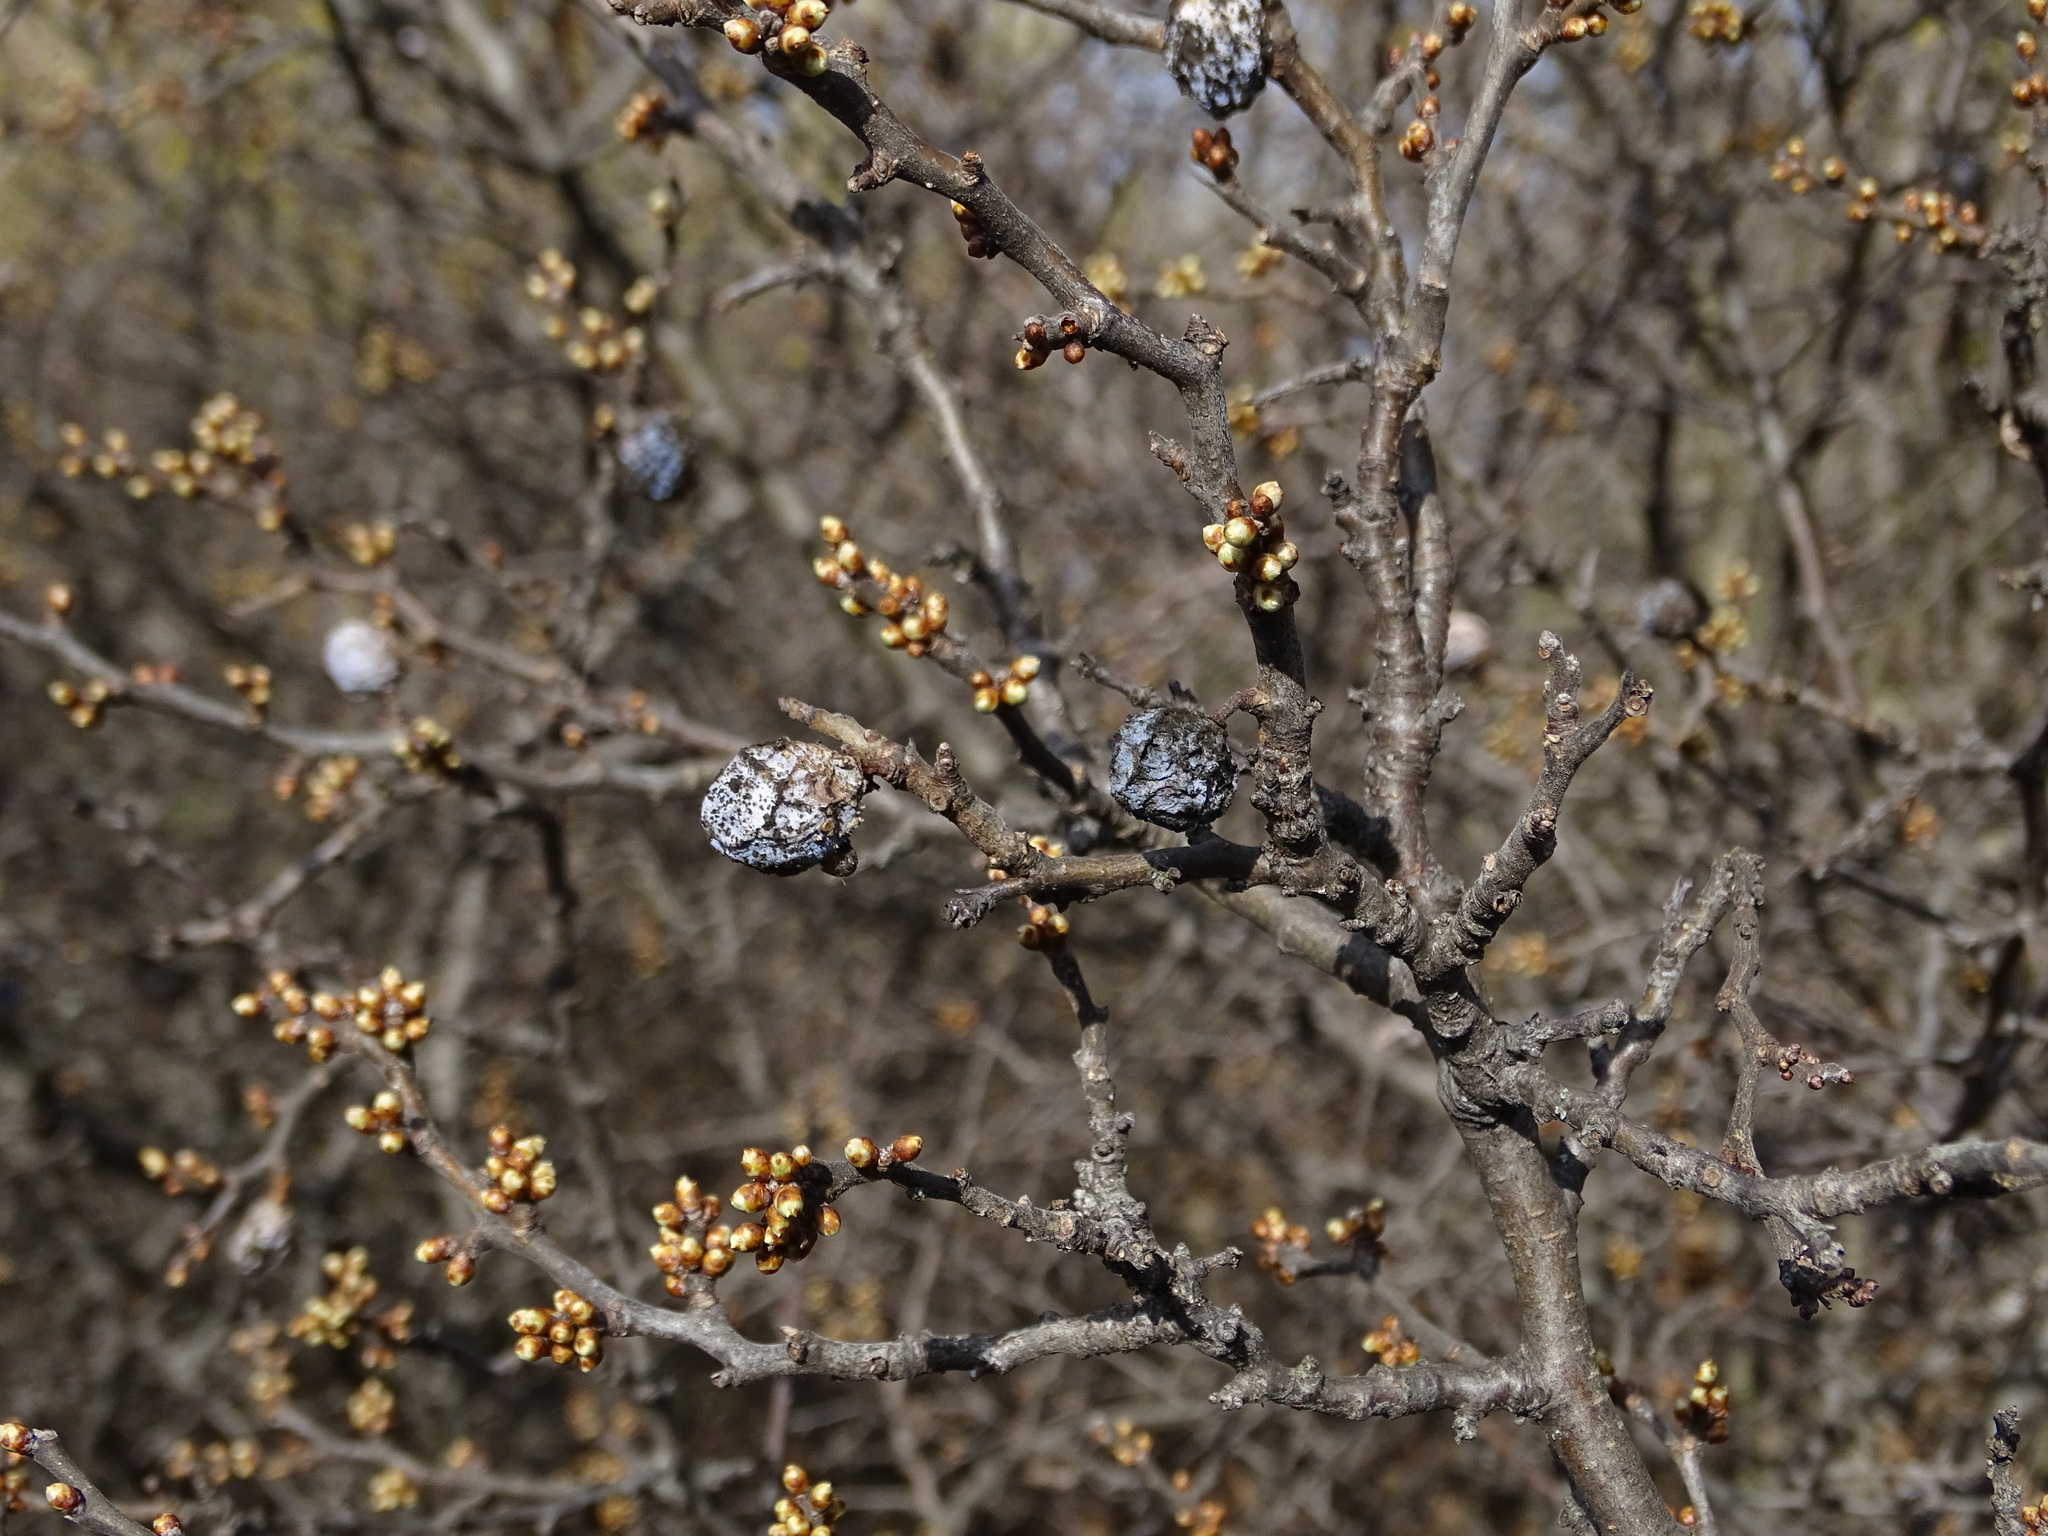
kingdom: Plantae
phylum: Tracheophyta
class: Magnoliopsida
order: Rosales
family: Rosaceae
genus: Prunus
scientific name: Prunus spinosa
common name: Blackthorn
